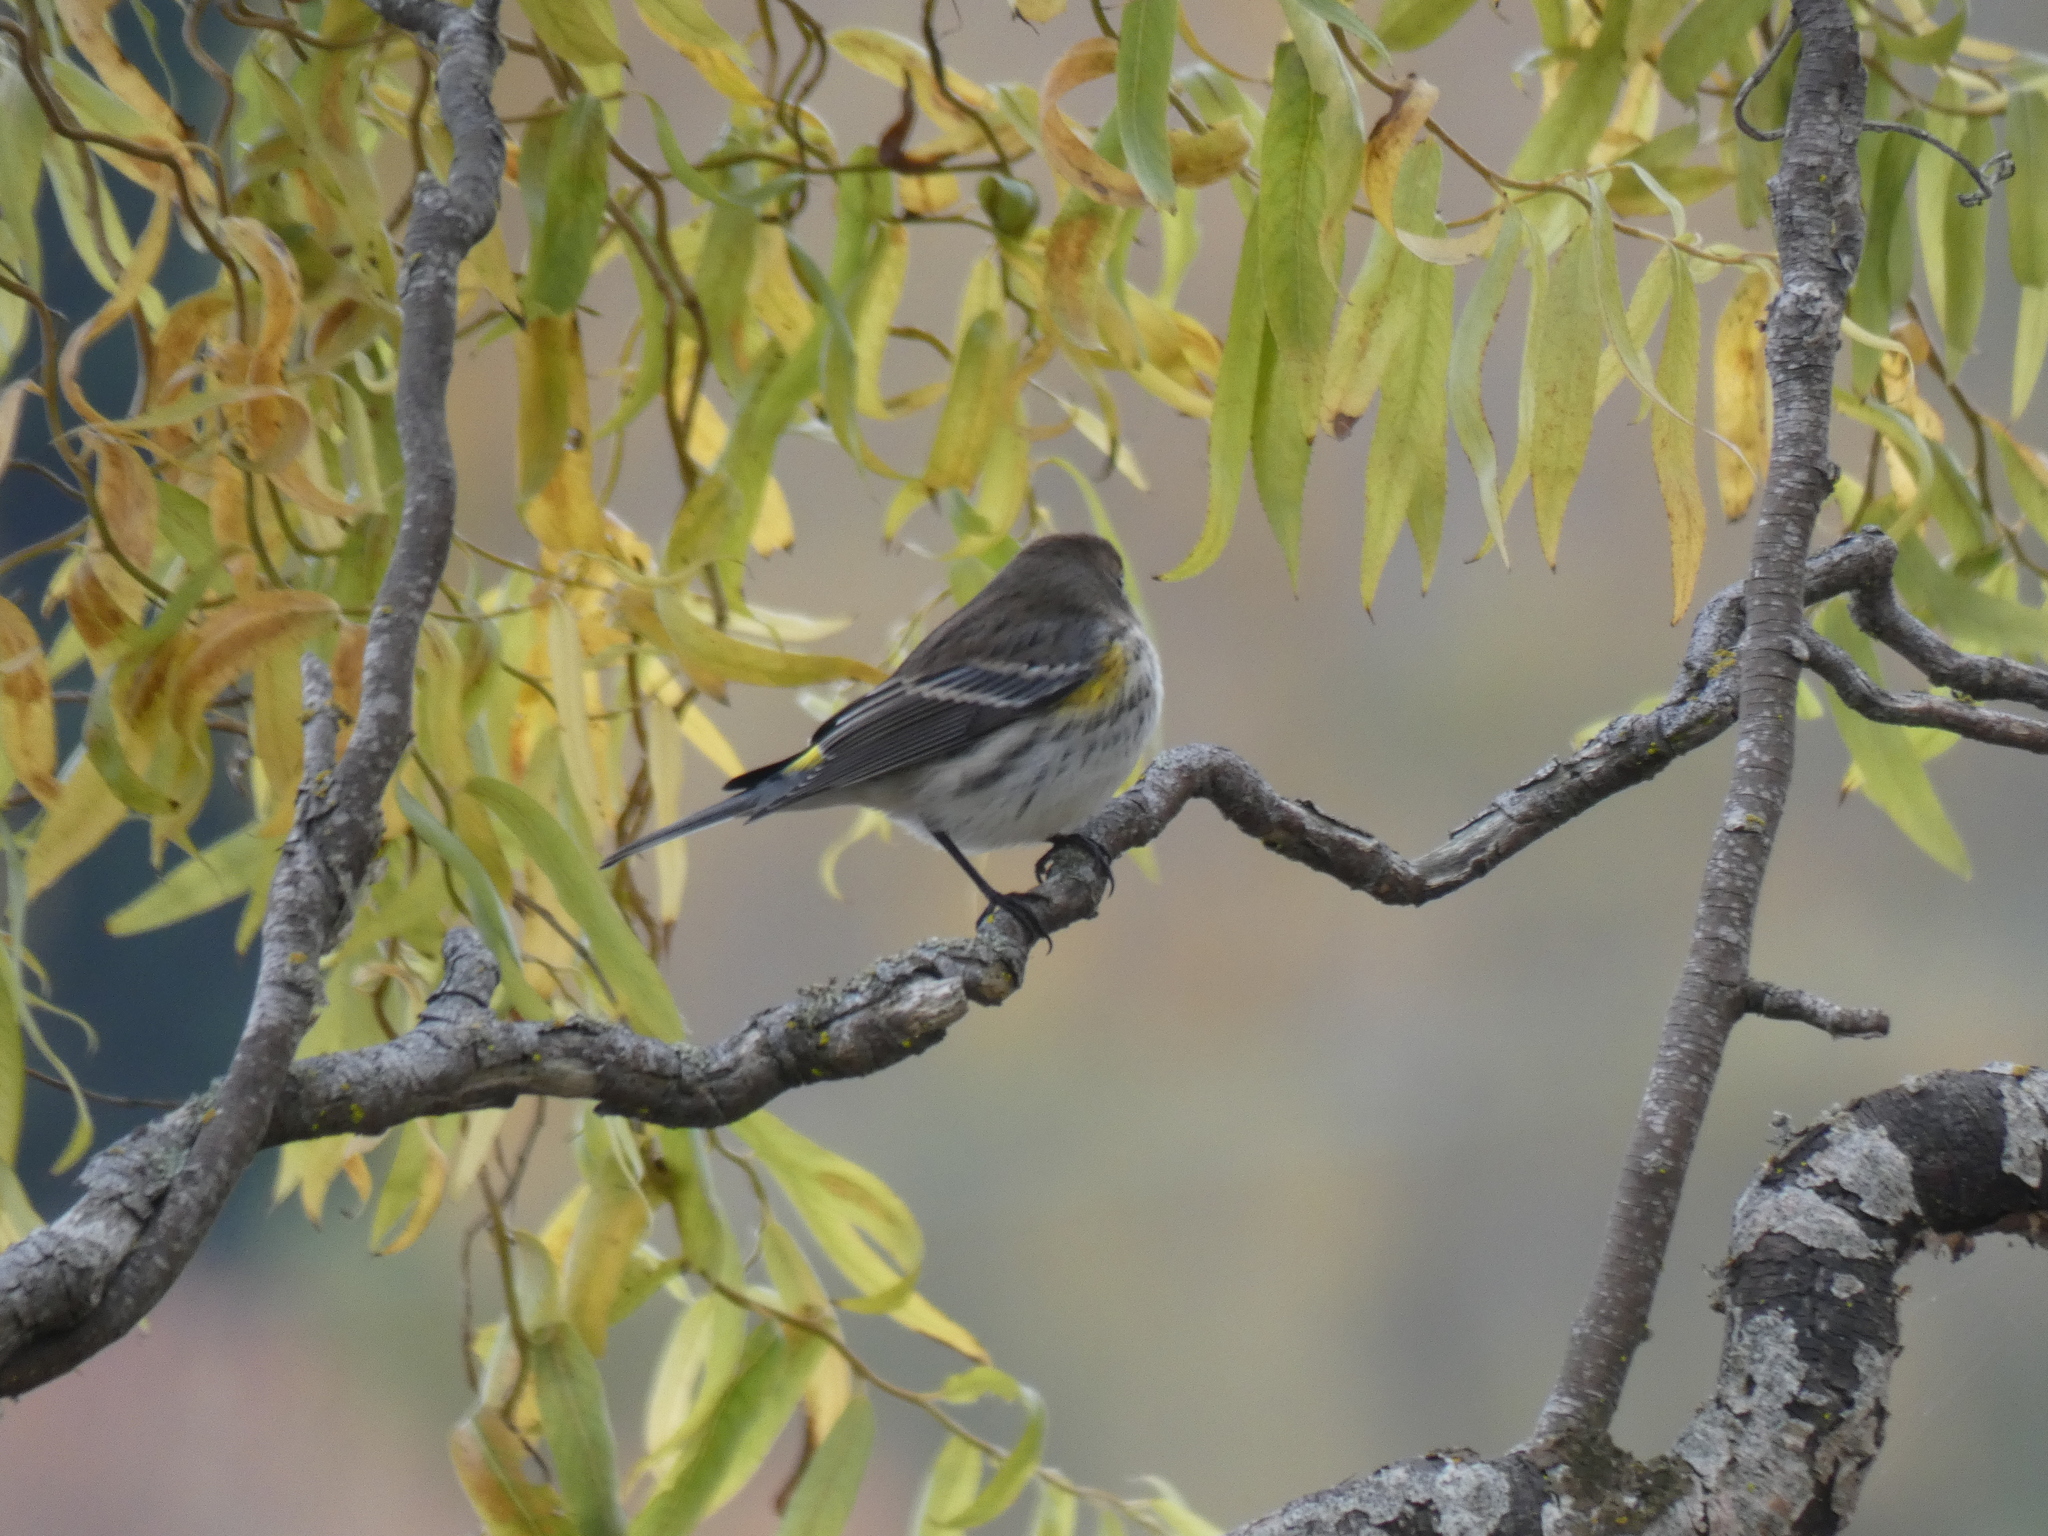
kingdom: Animalia
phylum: Chordata
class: Aves
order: Passeriformes
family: Parulidae
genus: Setophaga
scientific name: Setophaga coronata
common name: Myrtle warbler
